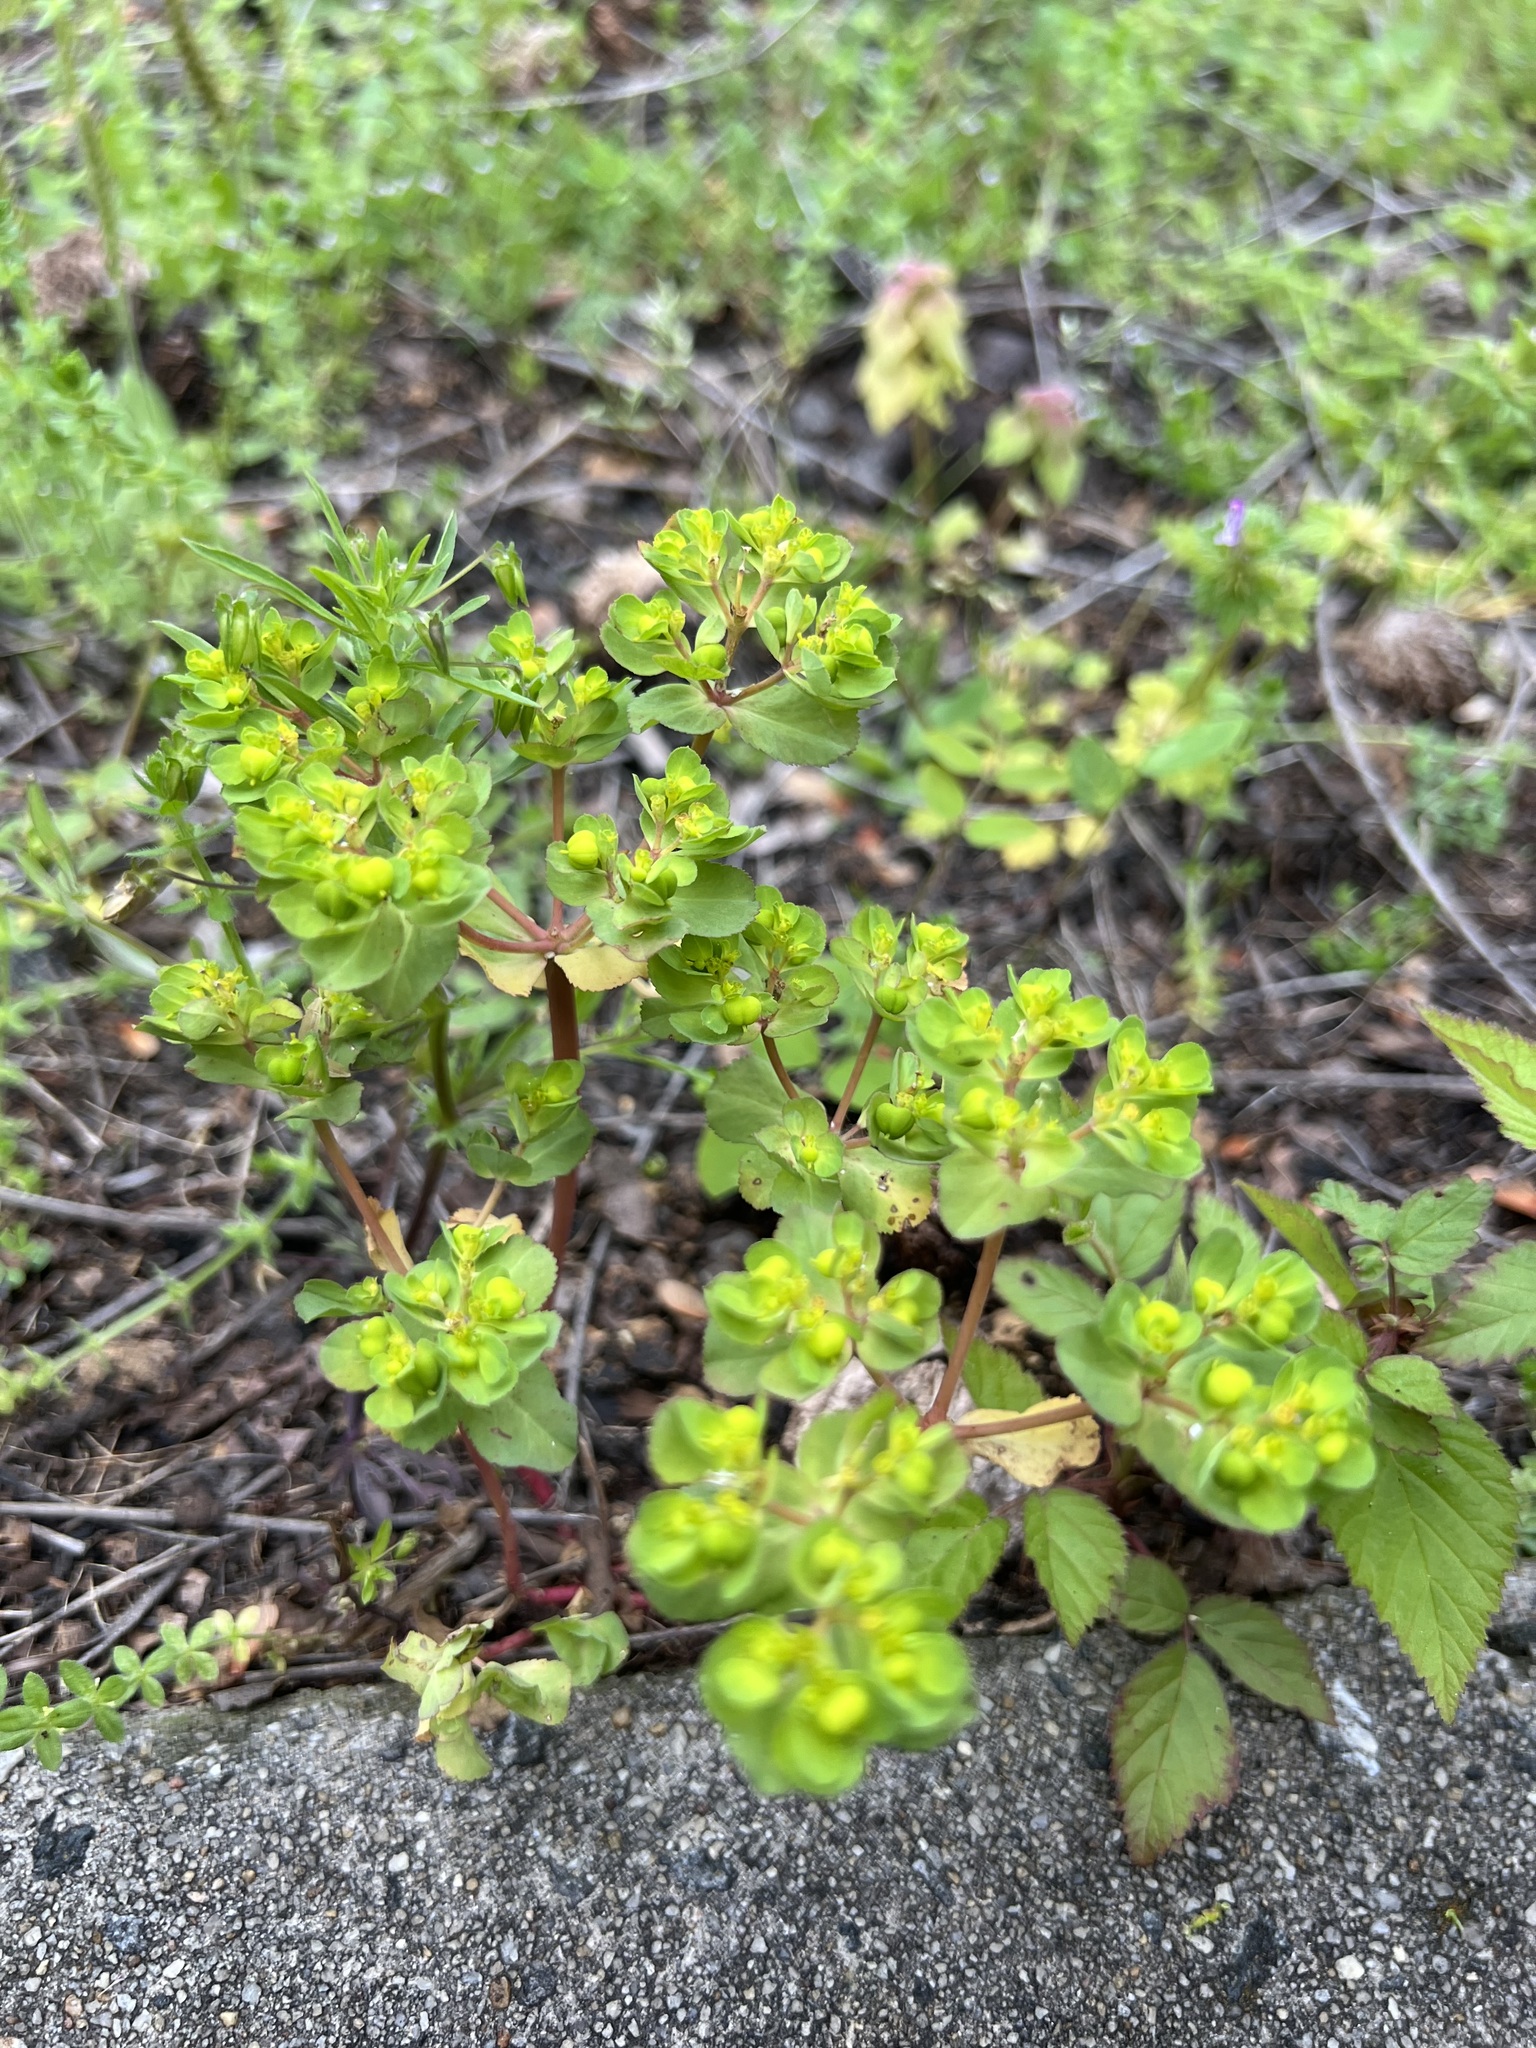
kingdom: Plantae
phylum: Tracheophyta
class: Magnoliopsida
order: Malpighiales
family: Euphorbiaceae
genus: Euphorbia
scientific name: Euphorbia helioscopia
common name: Sun spurge
